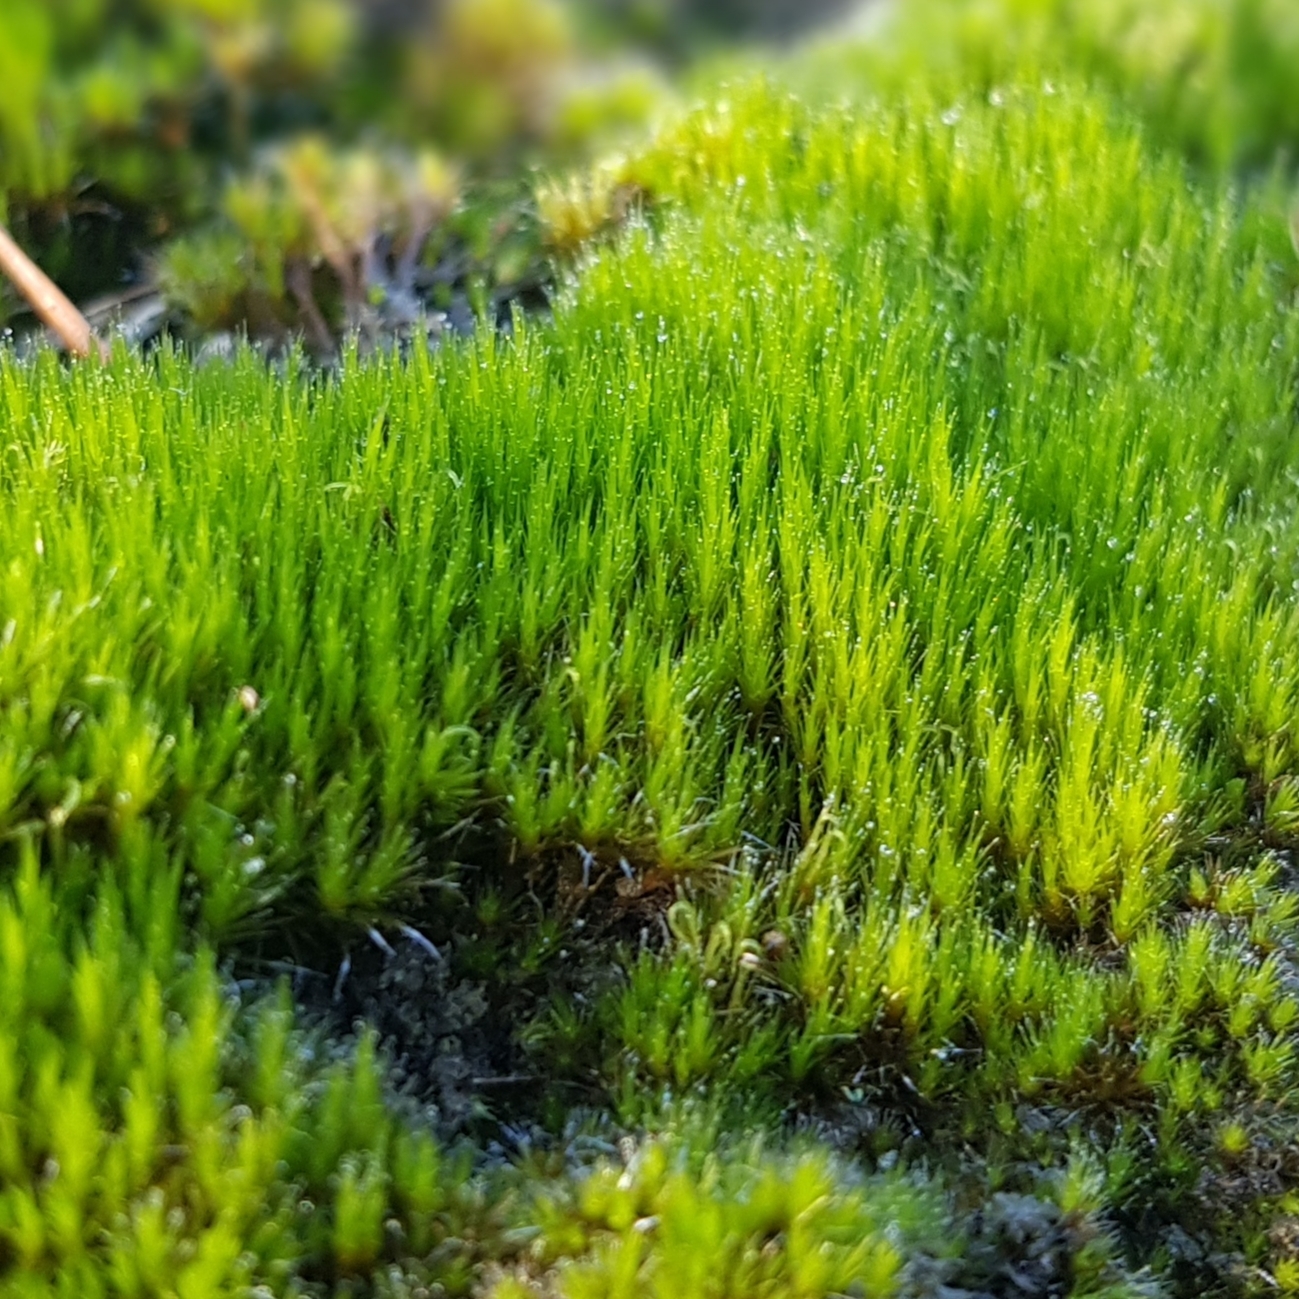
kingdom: Plantae
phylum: Bryophyta
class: Bryopsida
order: Dicranales
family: Leucobryaceae
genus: Campylopus
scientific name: Campylopus introflexus
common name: Heath star moss
